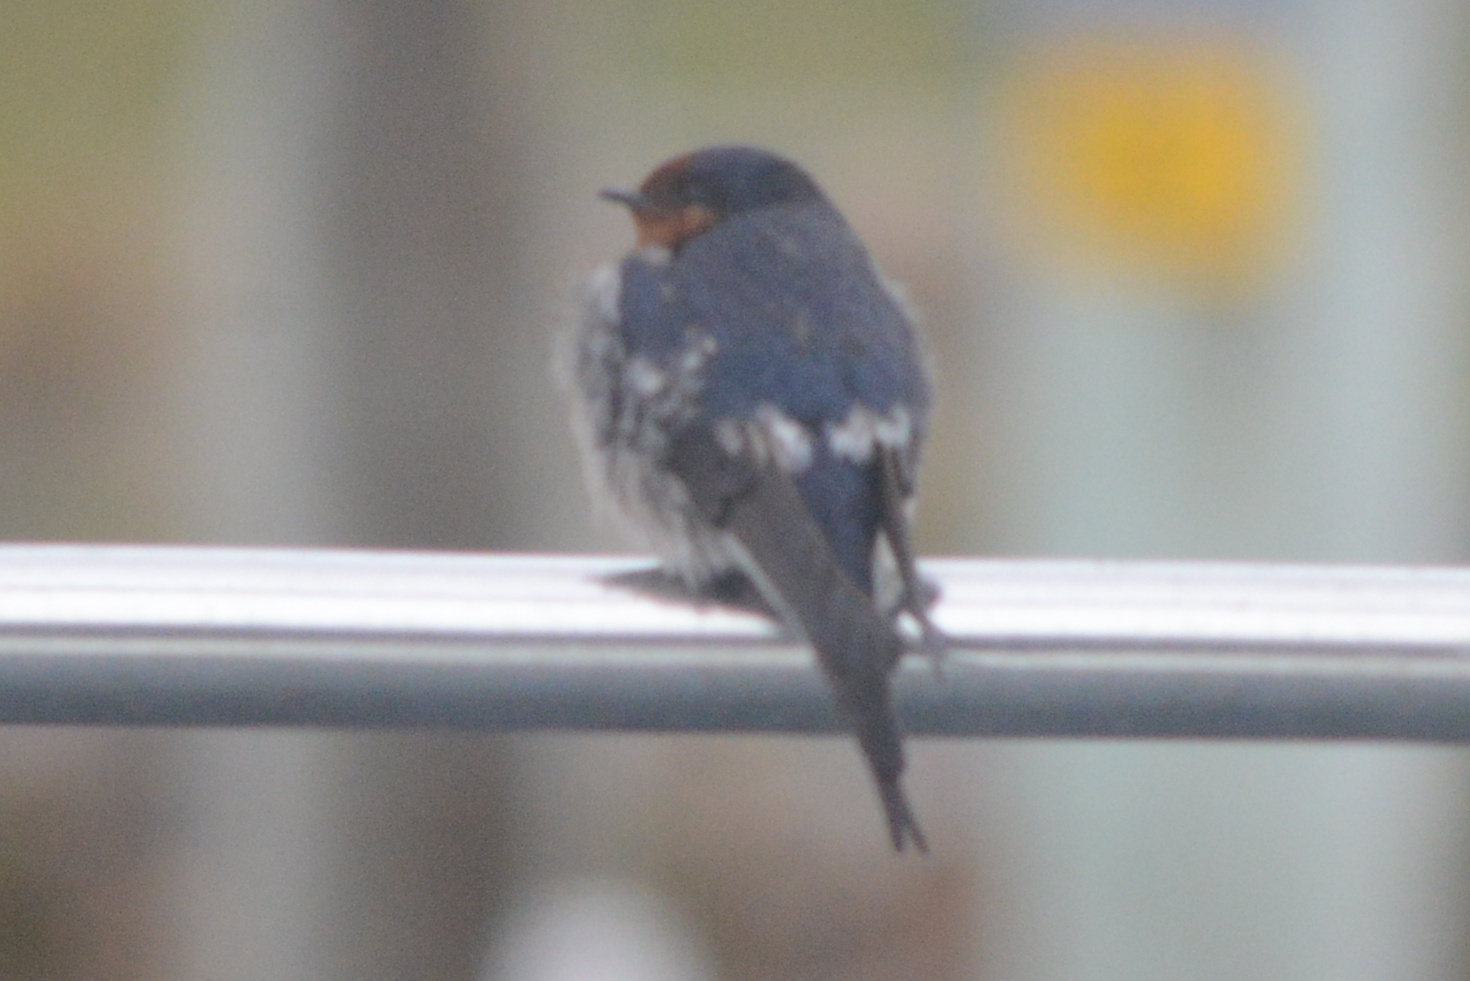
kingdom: Animalia
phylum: Chordata
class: Aves
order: Passeriformes
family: Hirundinidae
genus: Hirundo
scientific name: Hirundo neoxena
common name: Welcome swallow
